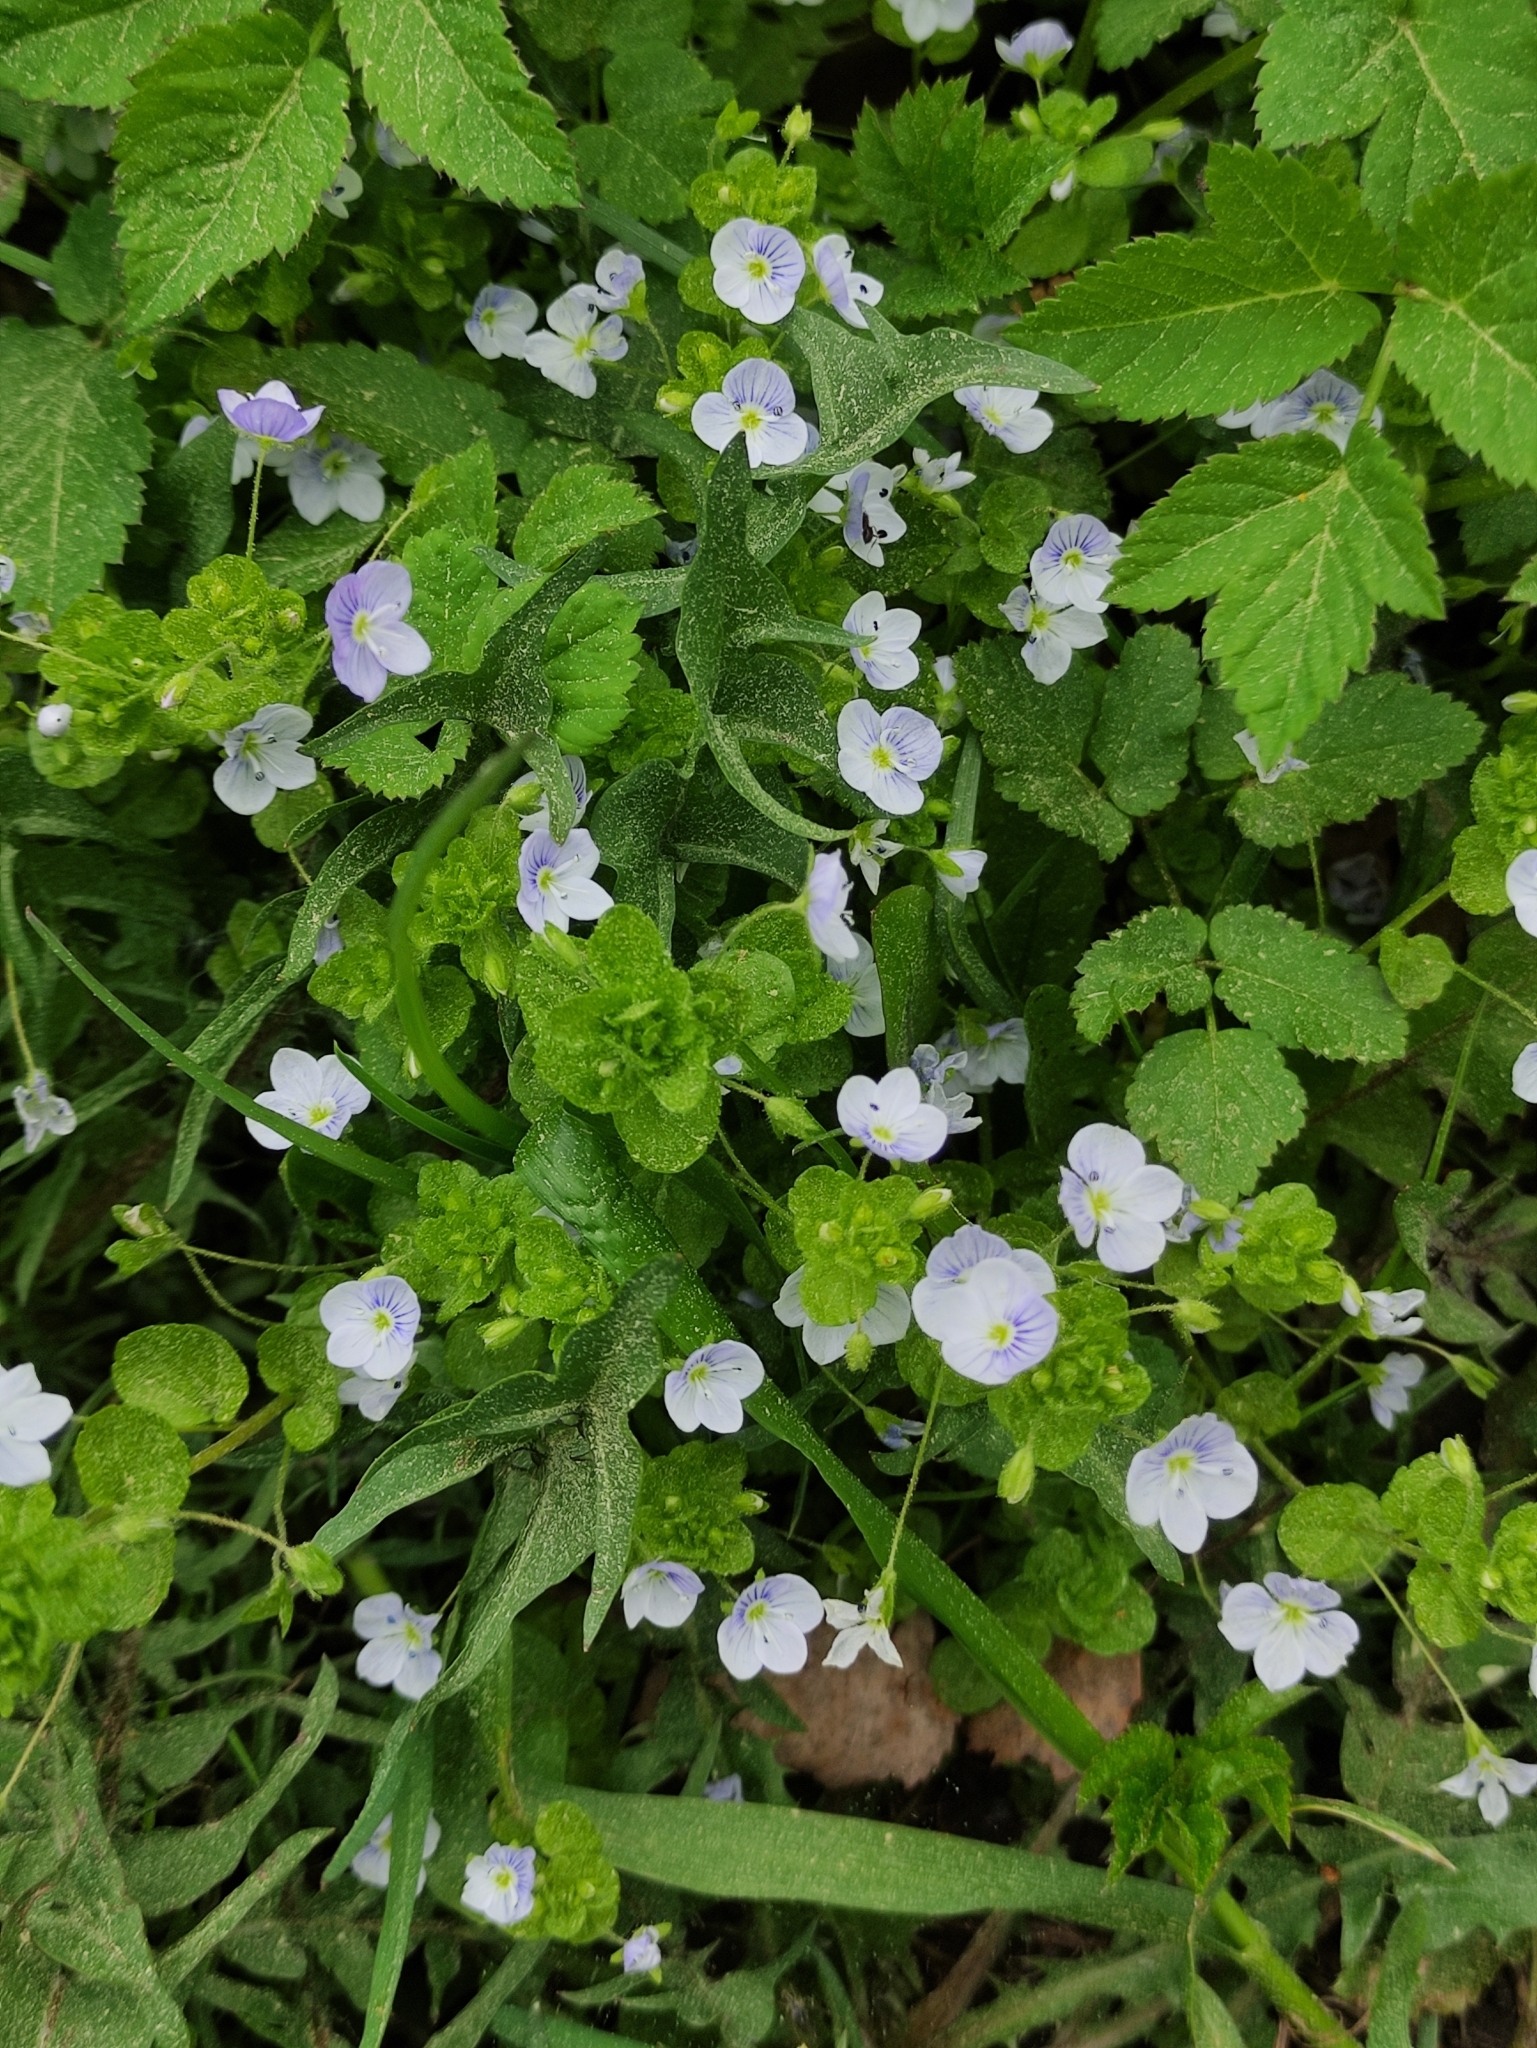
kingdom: Plantae
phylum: Tracheophyta
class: Magnoliopsida
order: Lamiales
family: Plantaginaceae
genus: Veronica
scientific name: Veronica filiformis
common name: Slender speedwell
